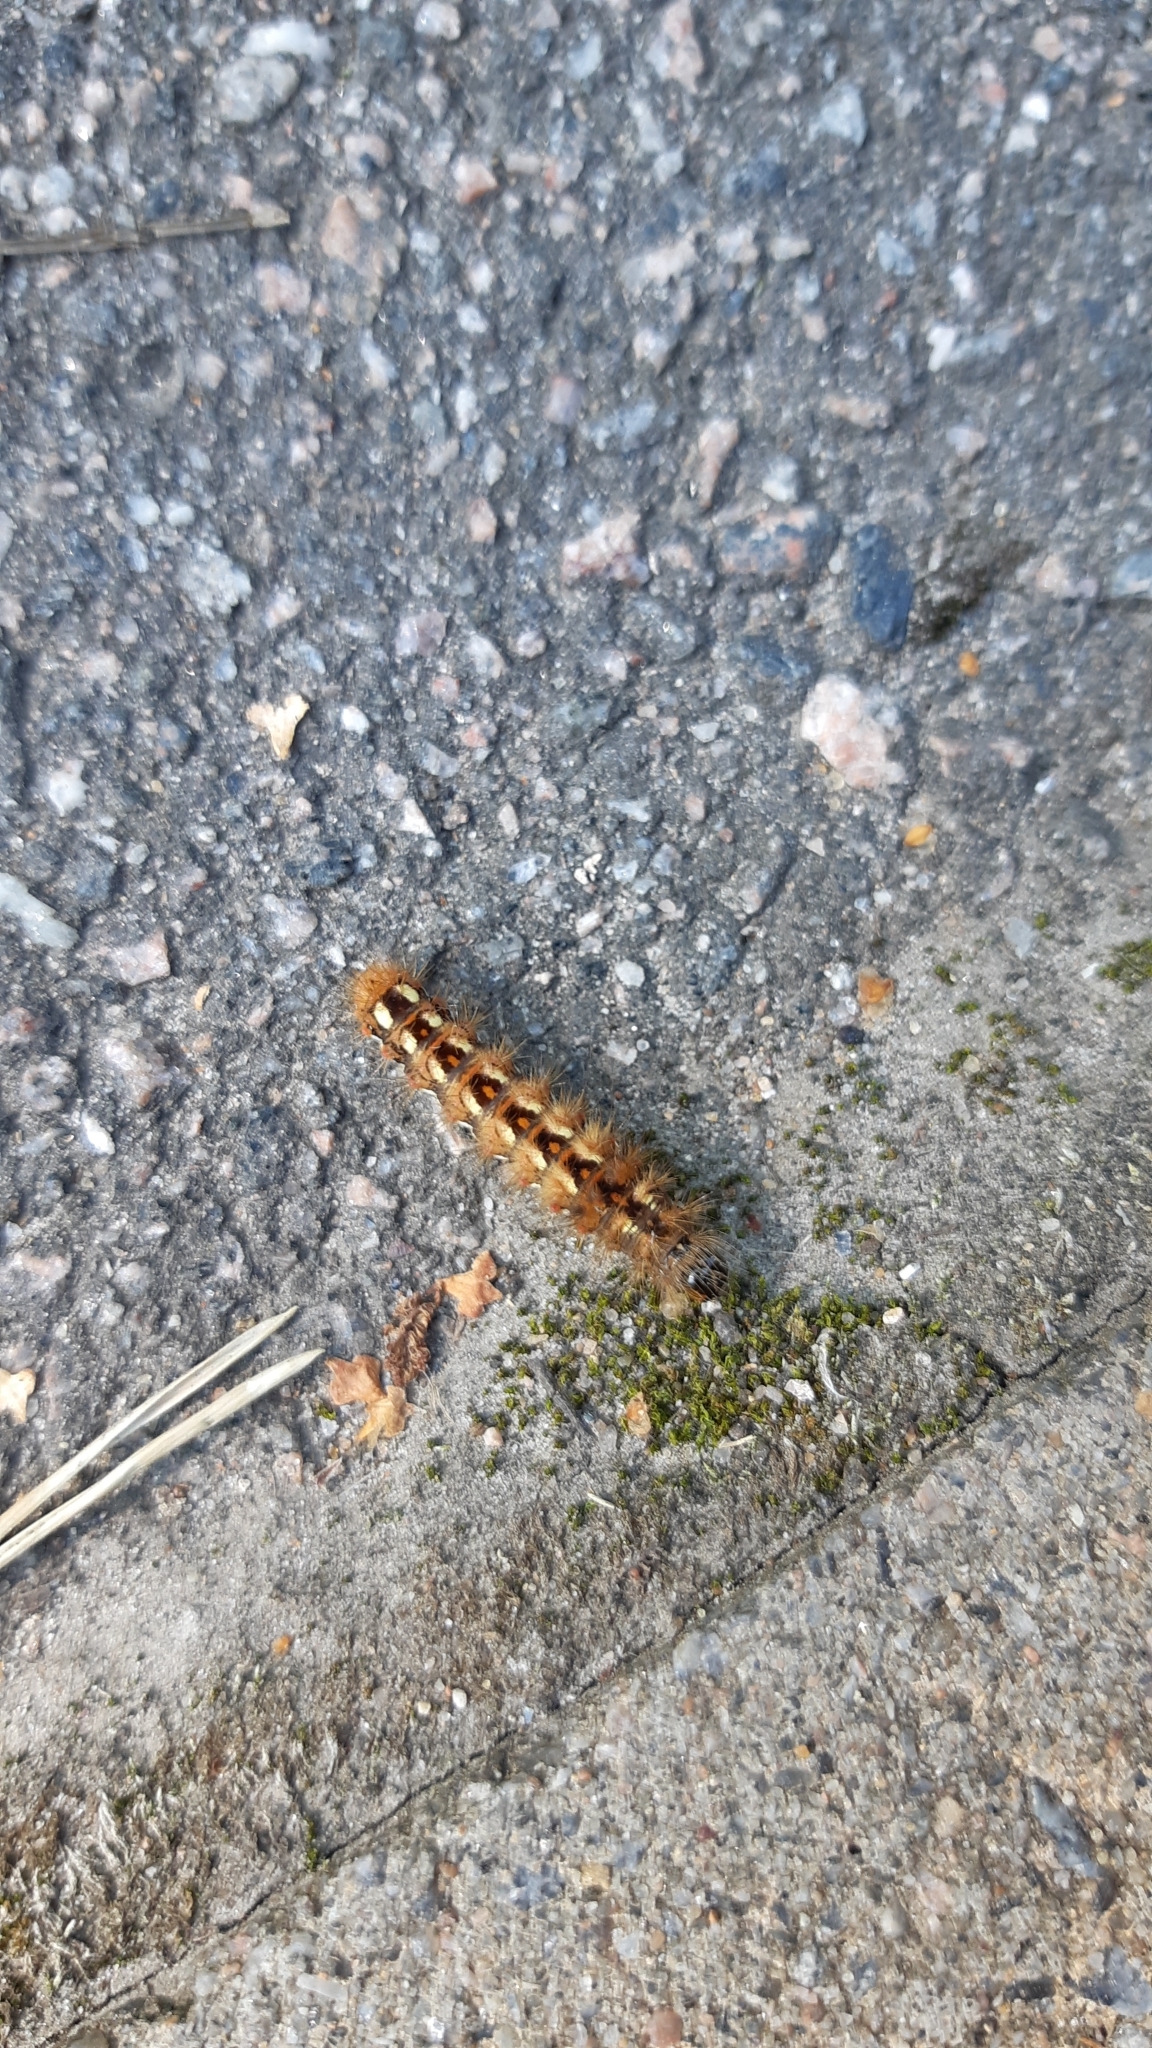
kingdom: Animalia
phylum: Arthropoda
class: Insecta
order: Lepidoptera
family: Noctuidae
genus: Acronicta
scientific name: Acronicta rumicis
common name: Knot grass
